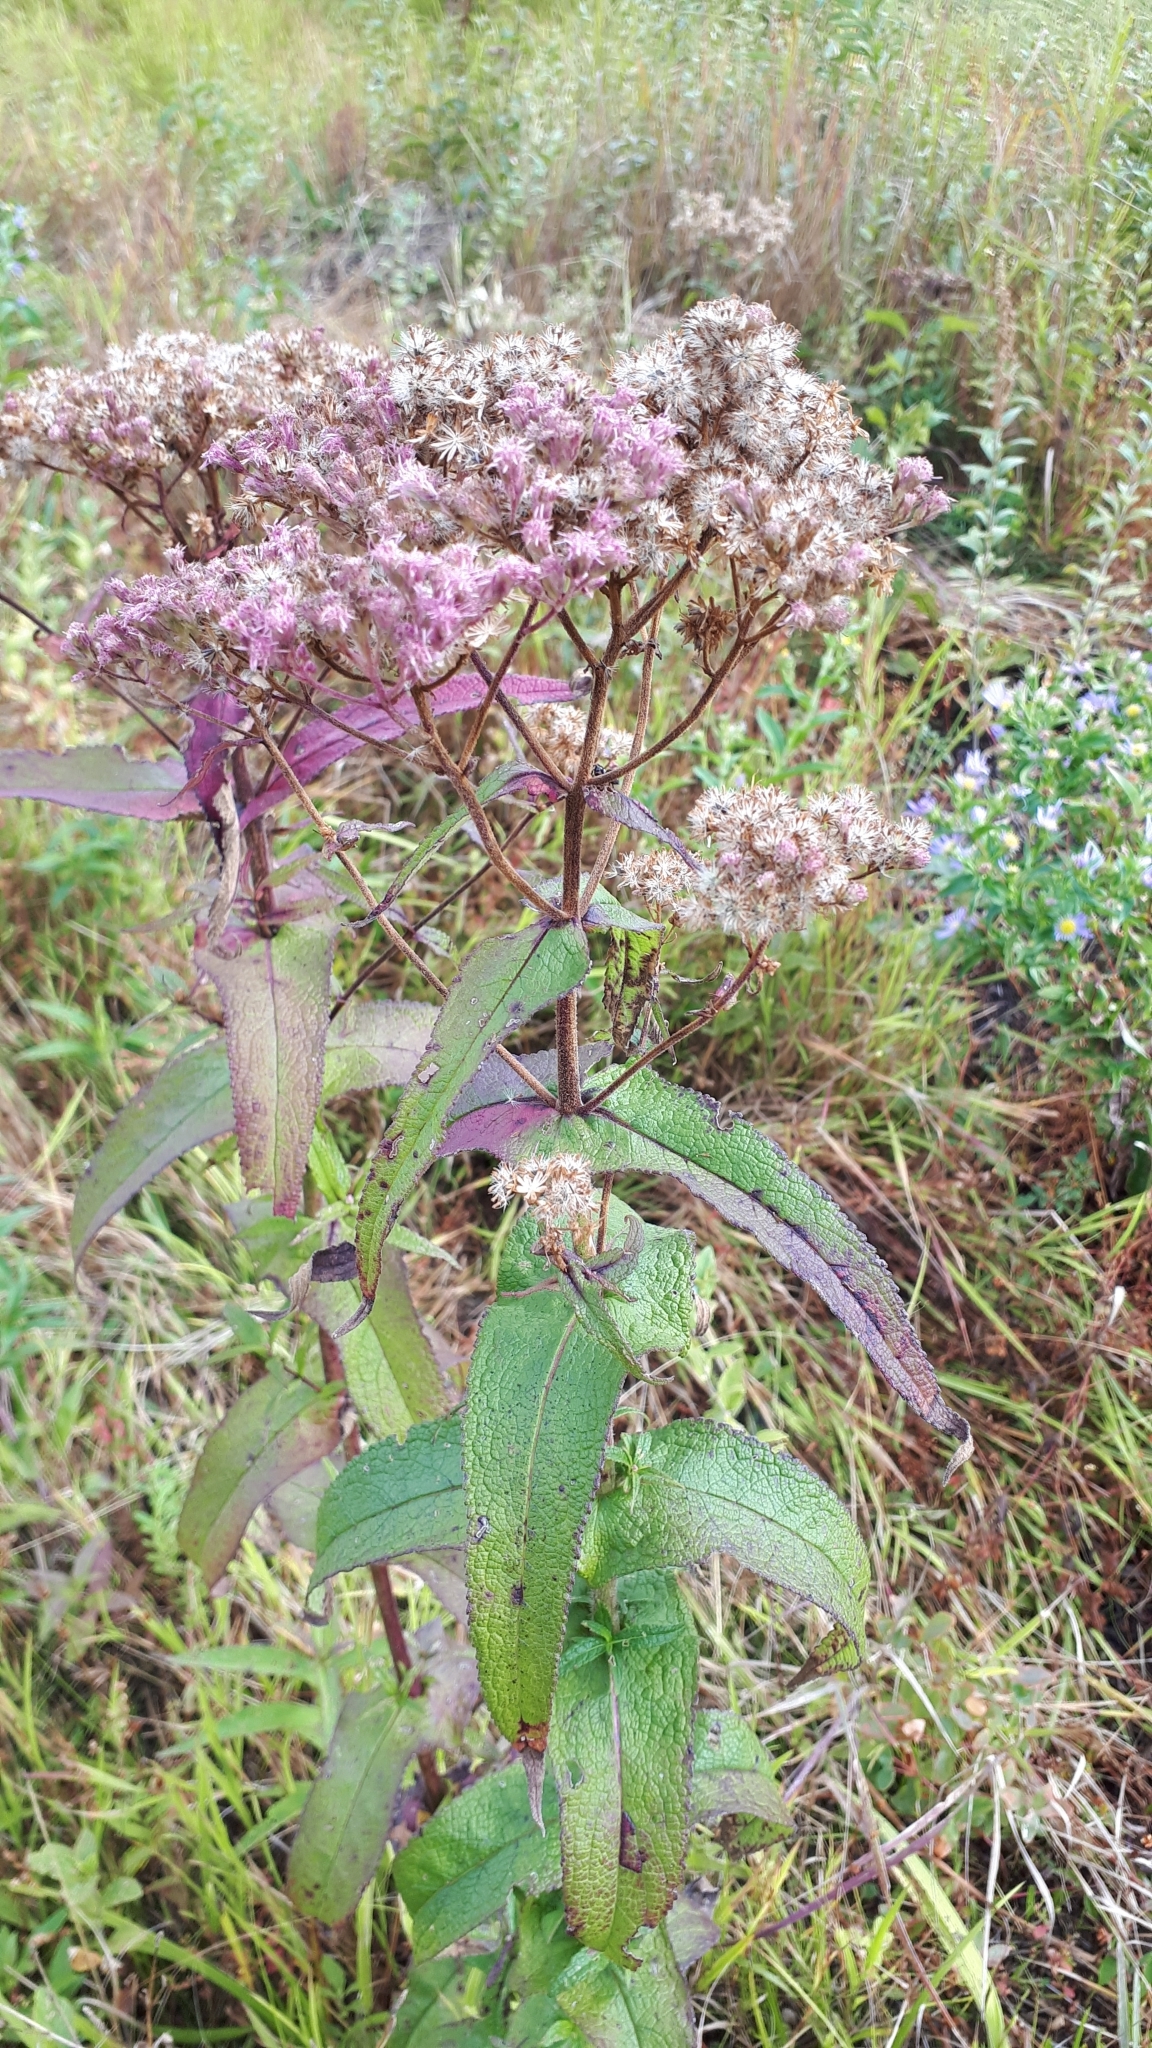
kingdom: Plantae
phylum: Tracheophyta
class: Magnoliopsida
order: Asterales
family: Asteraceae
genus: Eupatorium
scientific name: Eupatorium perfoliatum
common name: Boneset
